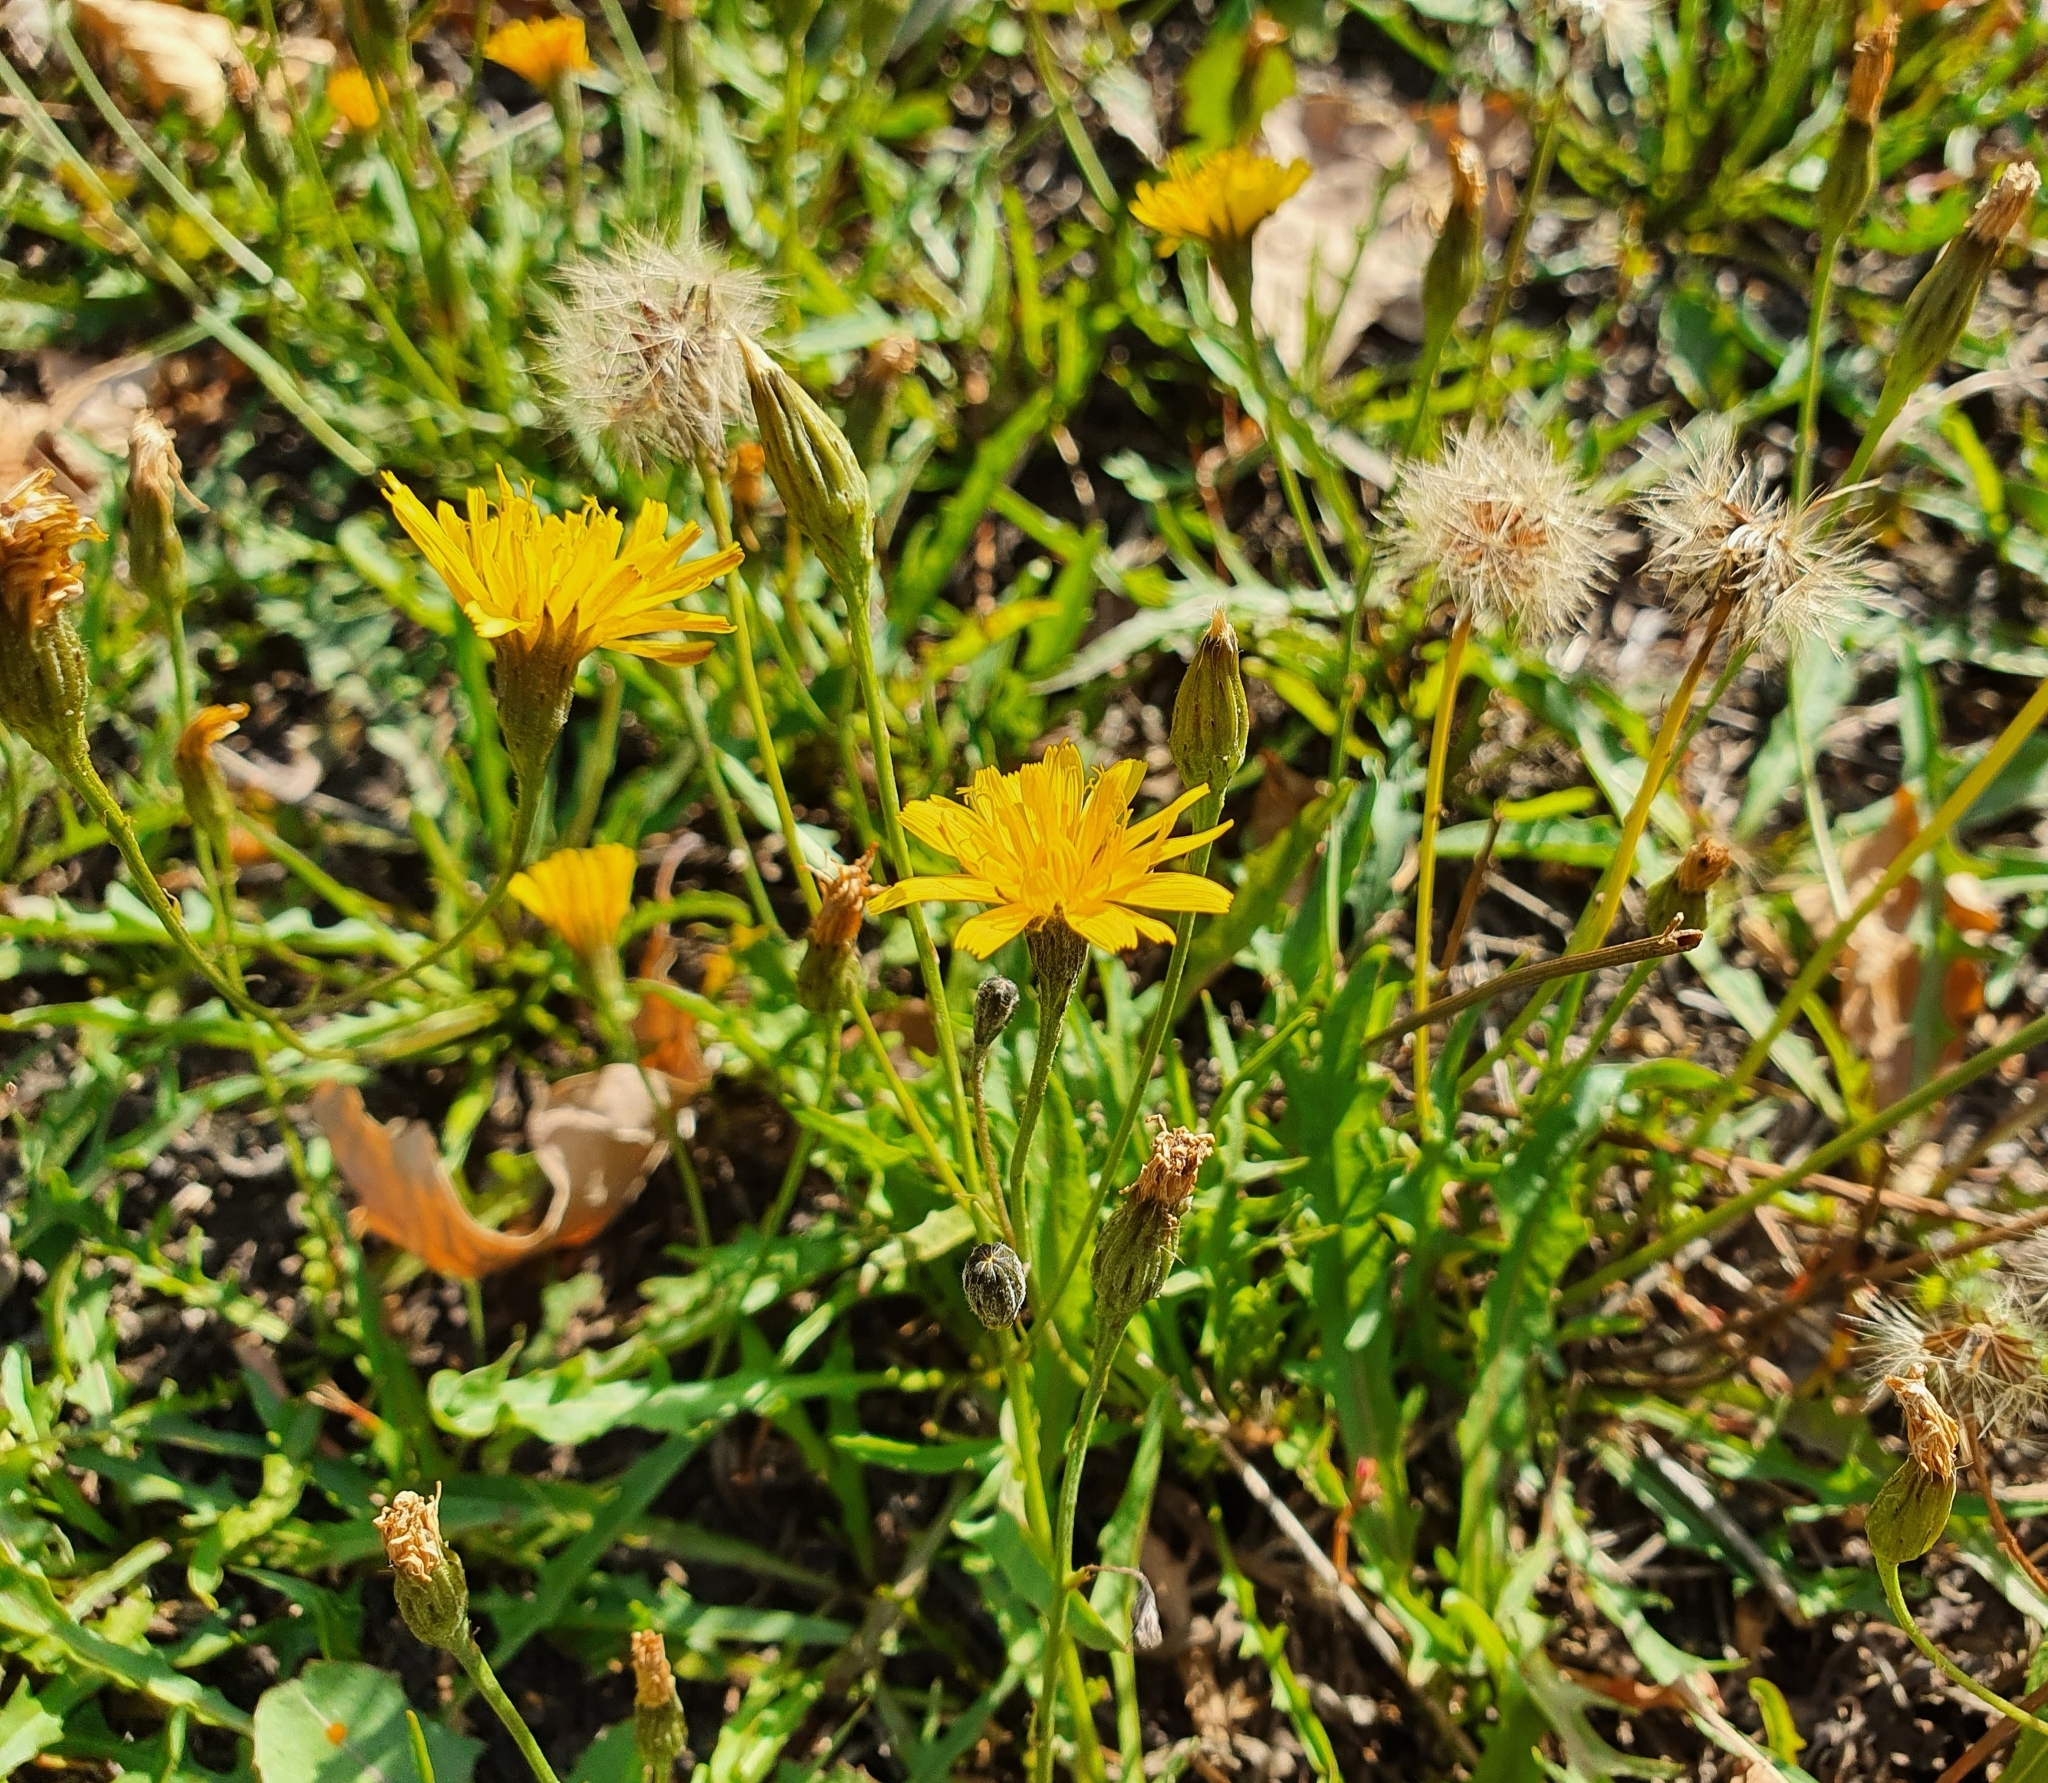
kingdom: Plantae
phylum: Tracheophyta
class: Magnoliopsida
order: Asterales
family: Asteraceae
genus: Scorzoneroides
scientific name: Scorzoneroides autumnalis
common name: Autumn hawkbit
